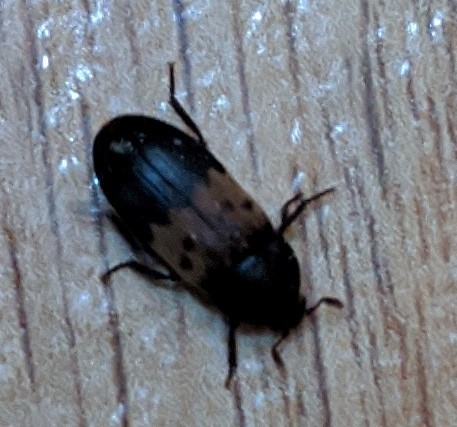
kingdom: Animalia
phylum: Arthropoda
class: Insecta
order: Coleoptera
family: Dermestidae
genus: Dermestes
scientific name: Dermestes lardarius
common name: Larder beetle
